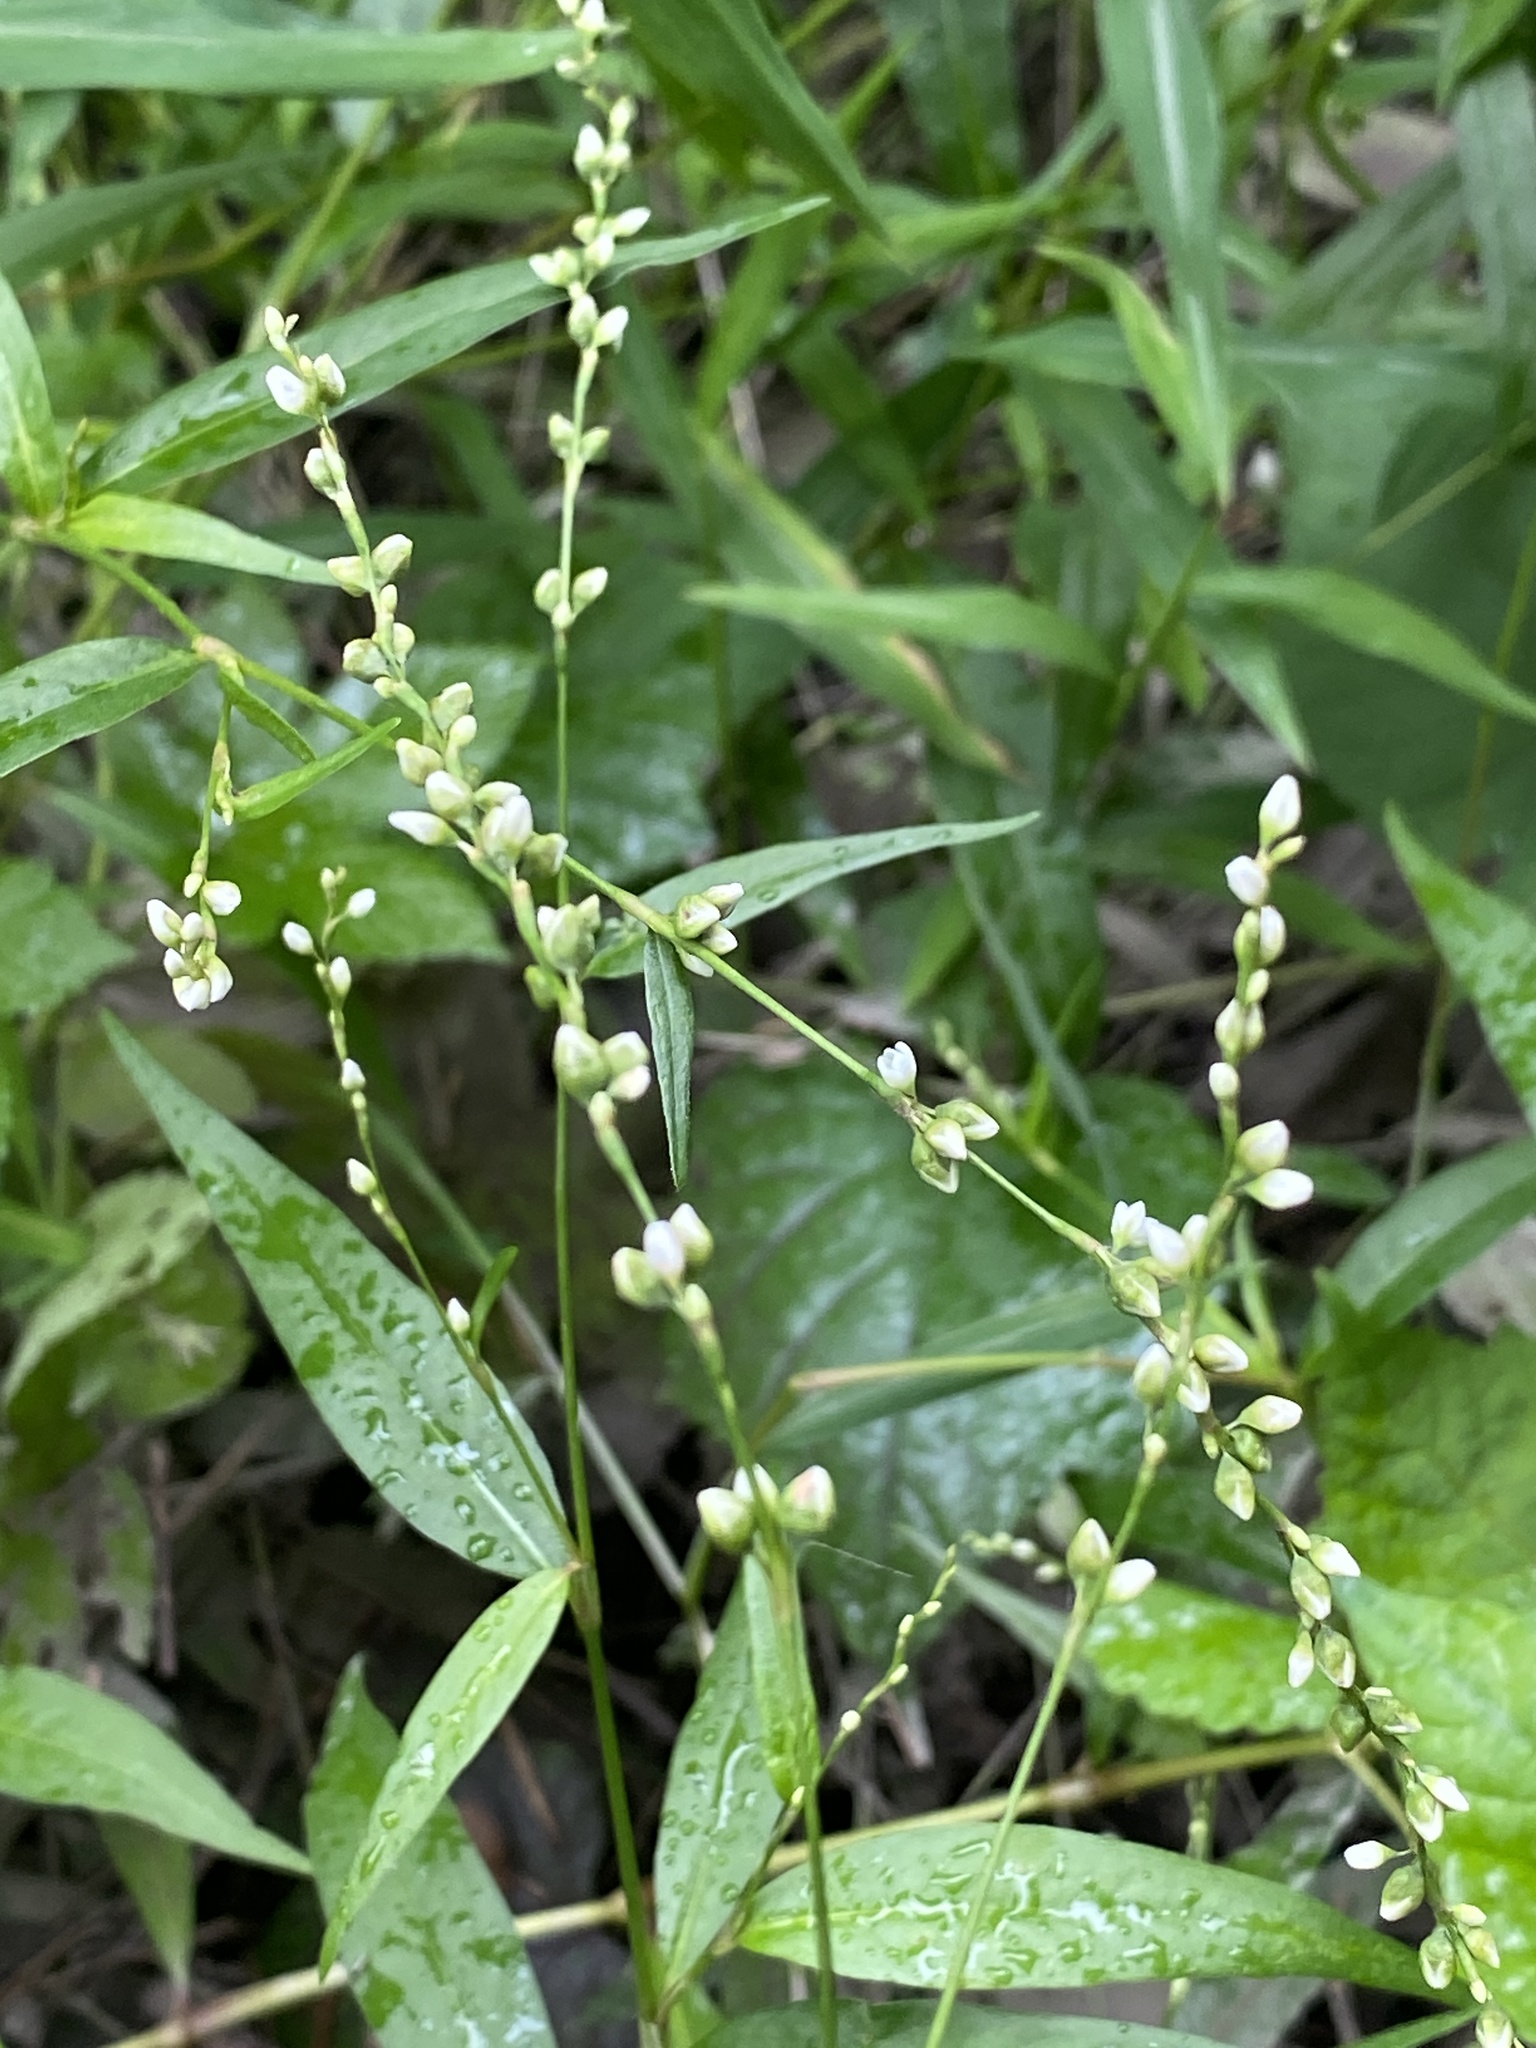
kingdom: Plantae
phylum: Tracheophyta
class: Magnoliopsida
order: Caryophyllales
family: Polygonaceae
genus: Persicaria
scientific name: Persicaria punctata
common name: Dotted smartweed
